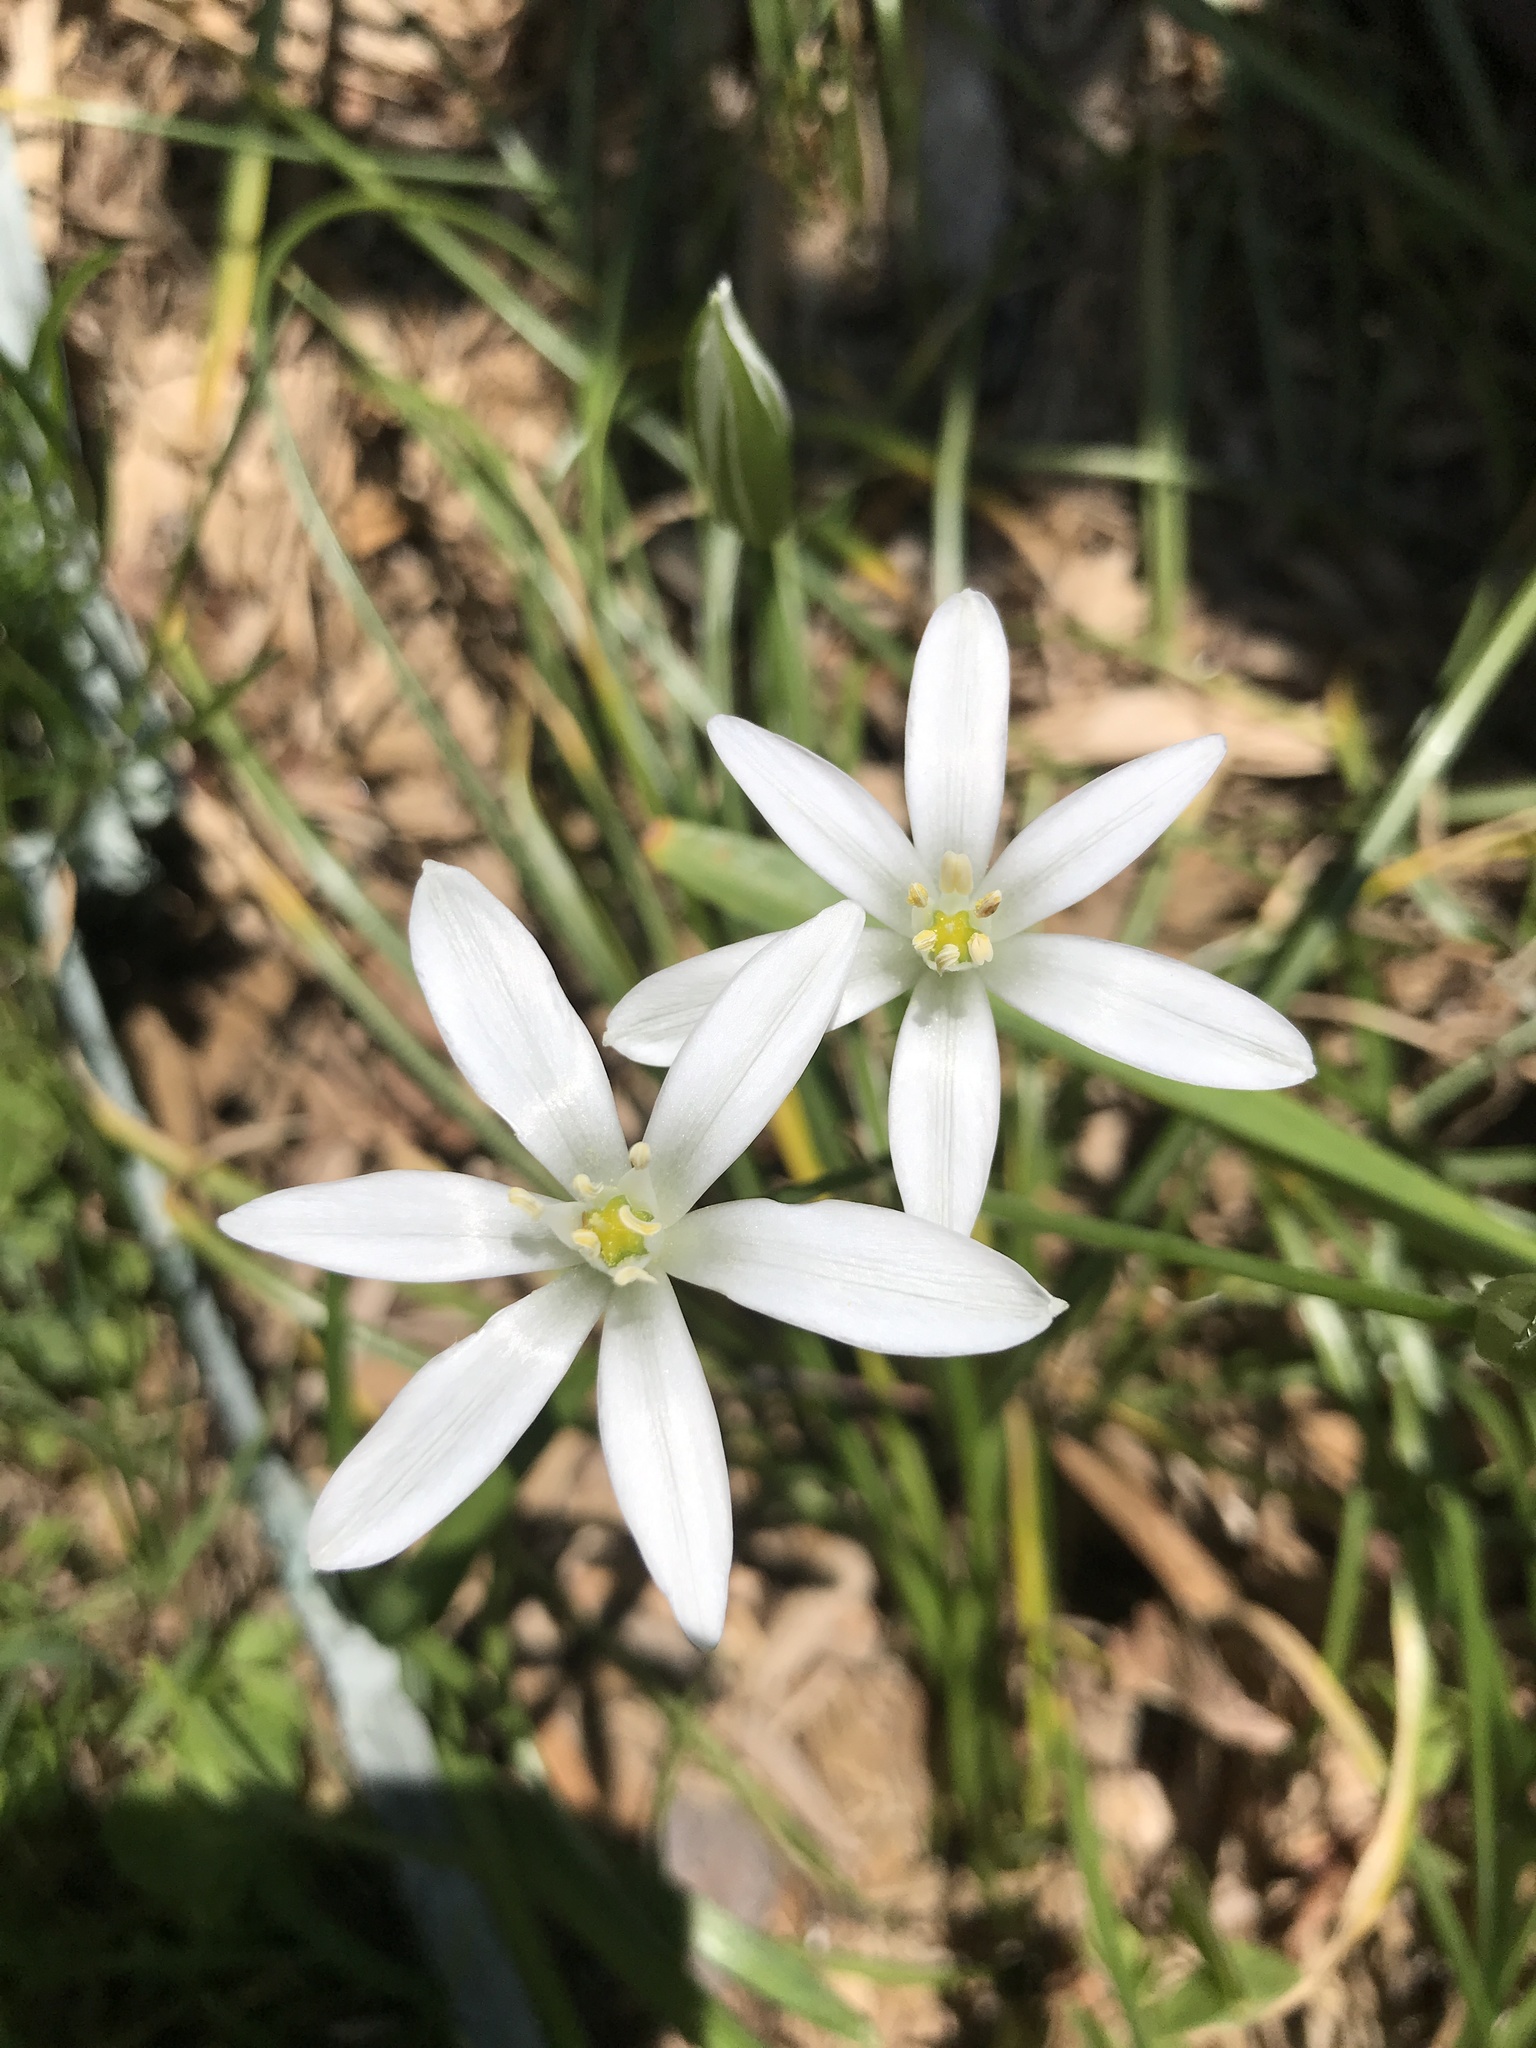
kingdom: Plantae
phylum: Tracheophyta
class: Liliopsida
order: Asparagales
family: Asparagaceae
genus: Ornithogalum
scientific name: Ornithogalum umbellatum
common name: Garden star-of-bethlehem
